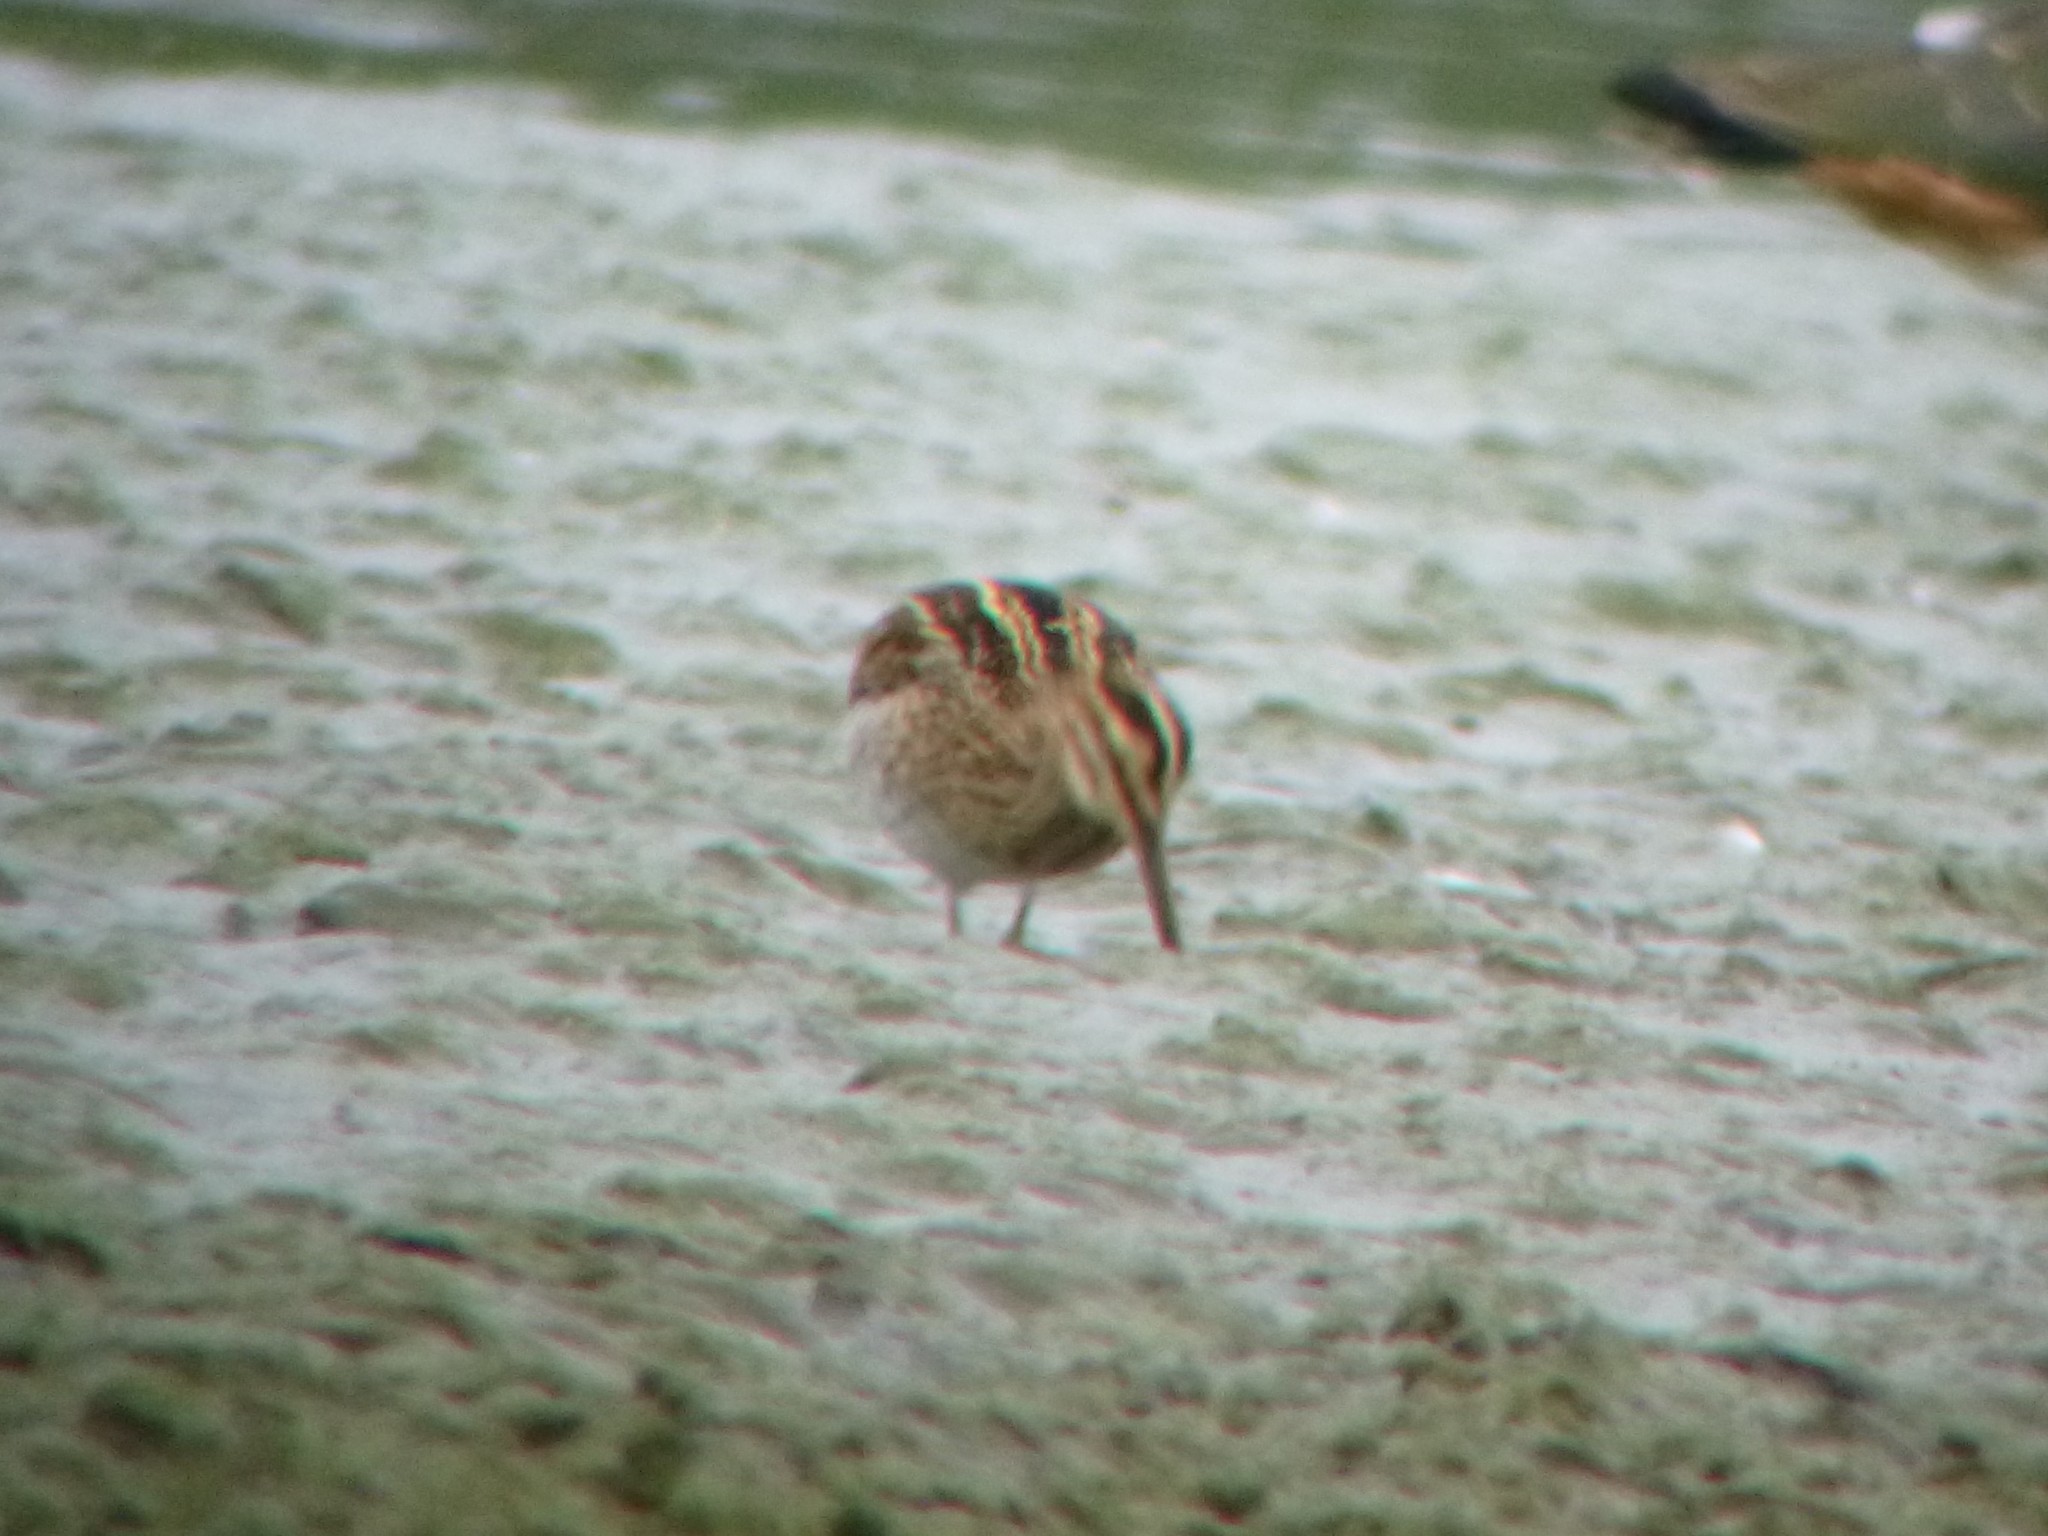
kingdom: Animalia
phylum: Chordata
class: Aves
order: Charadriiformes
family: Scolopacidae
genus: Gallinago
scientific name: Gallinago gallinago
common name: Common snipe
